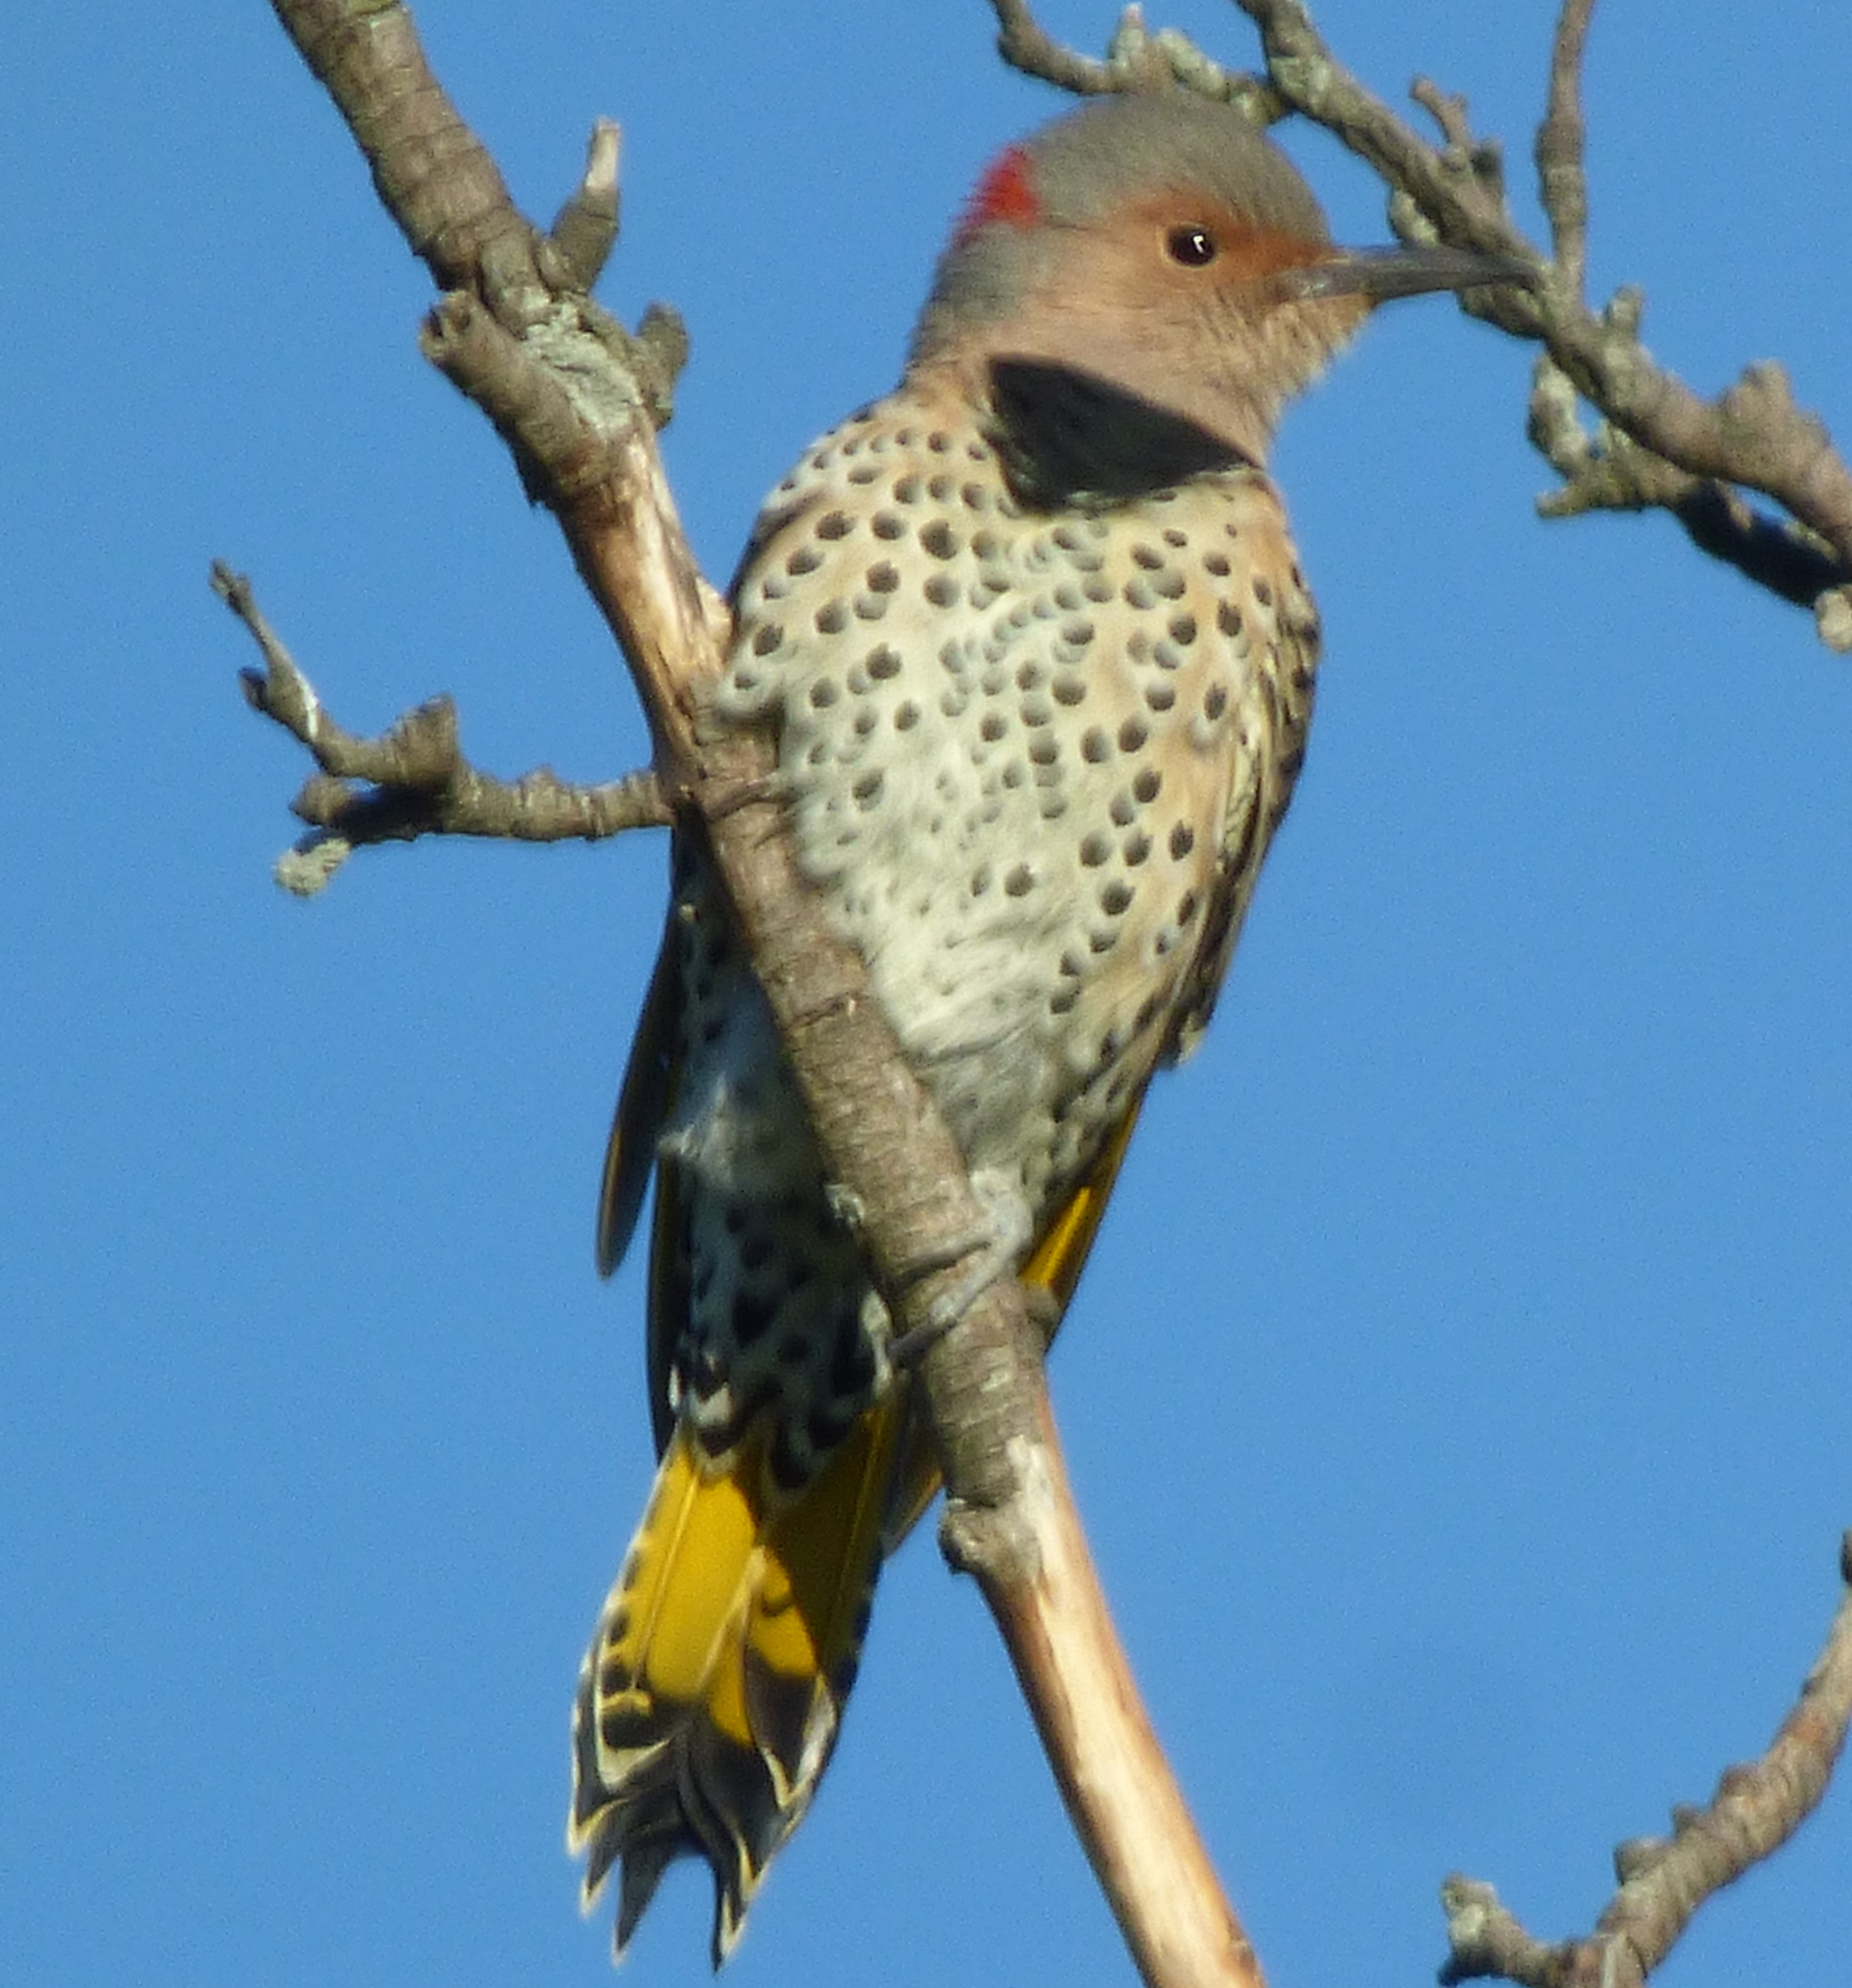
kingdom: Animalia
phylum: Chordata
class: Aves
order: Piciformes
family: Picidae
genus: Colaptes
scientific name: Colaptes auratus
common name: Northern flicker
